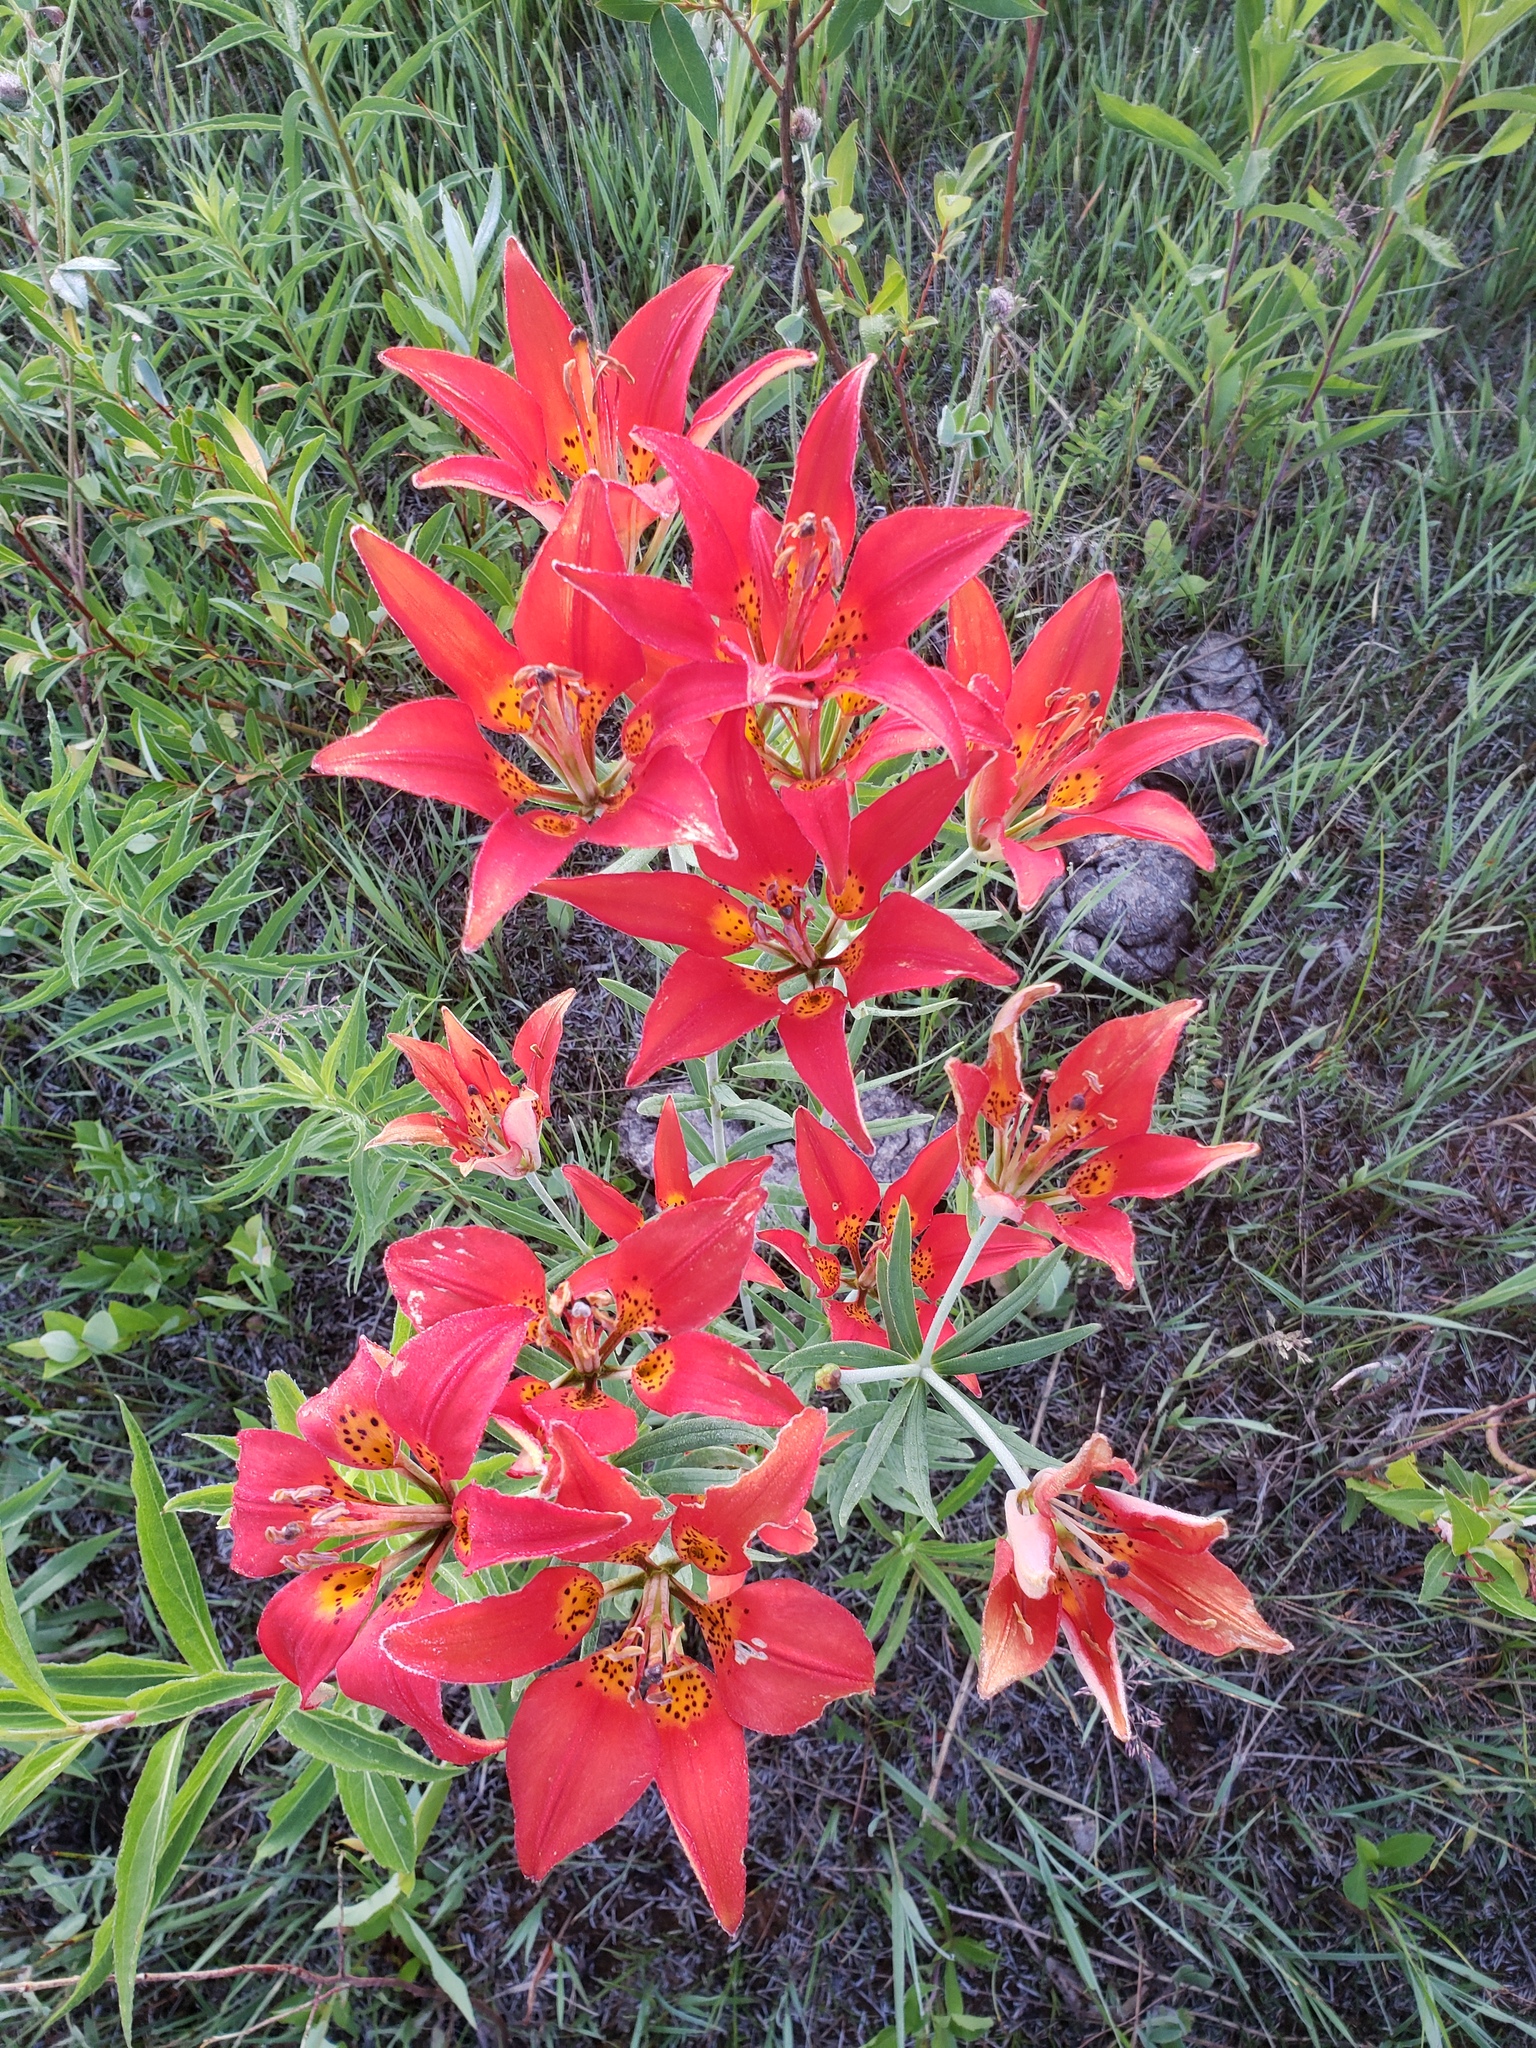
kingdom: Plantae
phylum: Tracheophyta
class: Liliopsida
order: Liliales
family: Liliaceae
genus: Lilium
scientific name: Lilium philadelphicum
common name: Red lily
